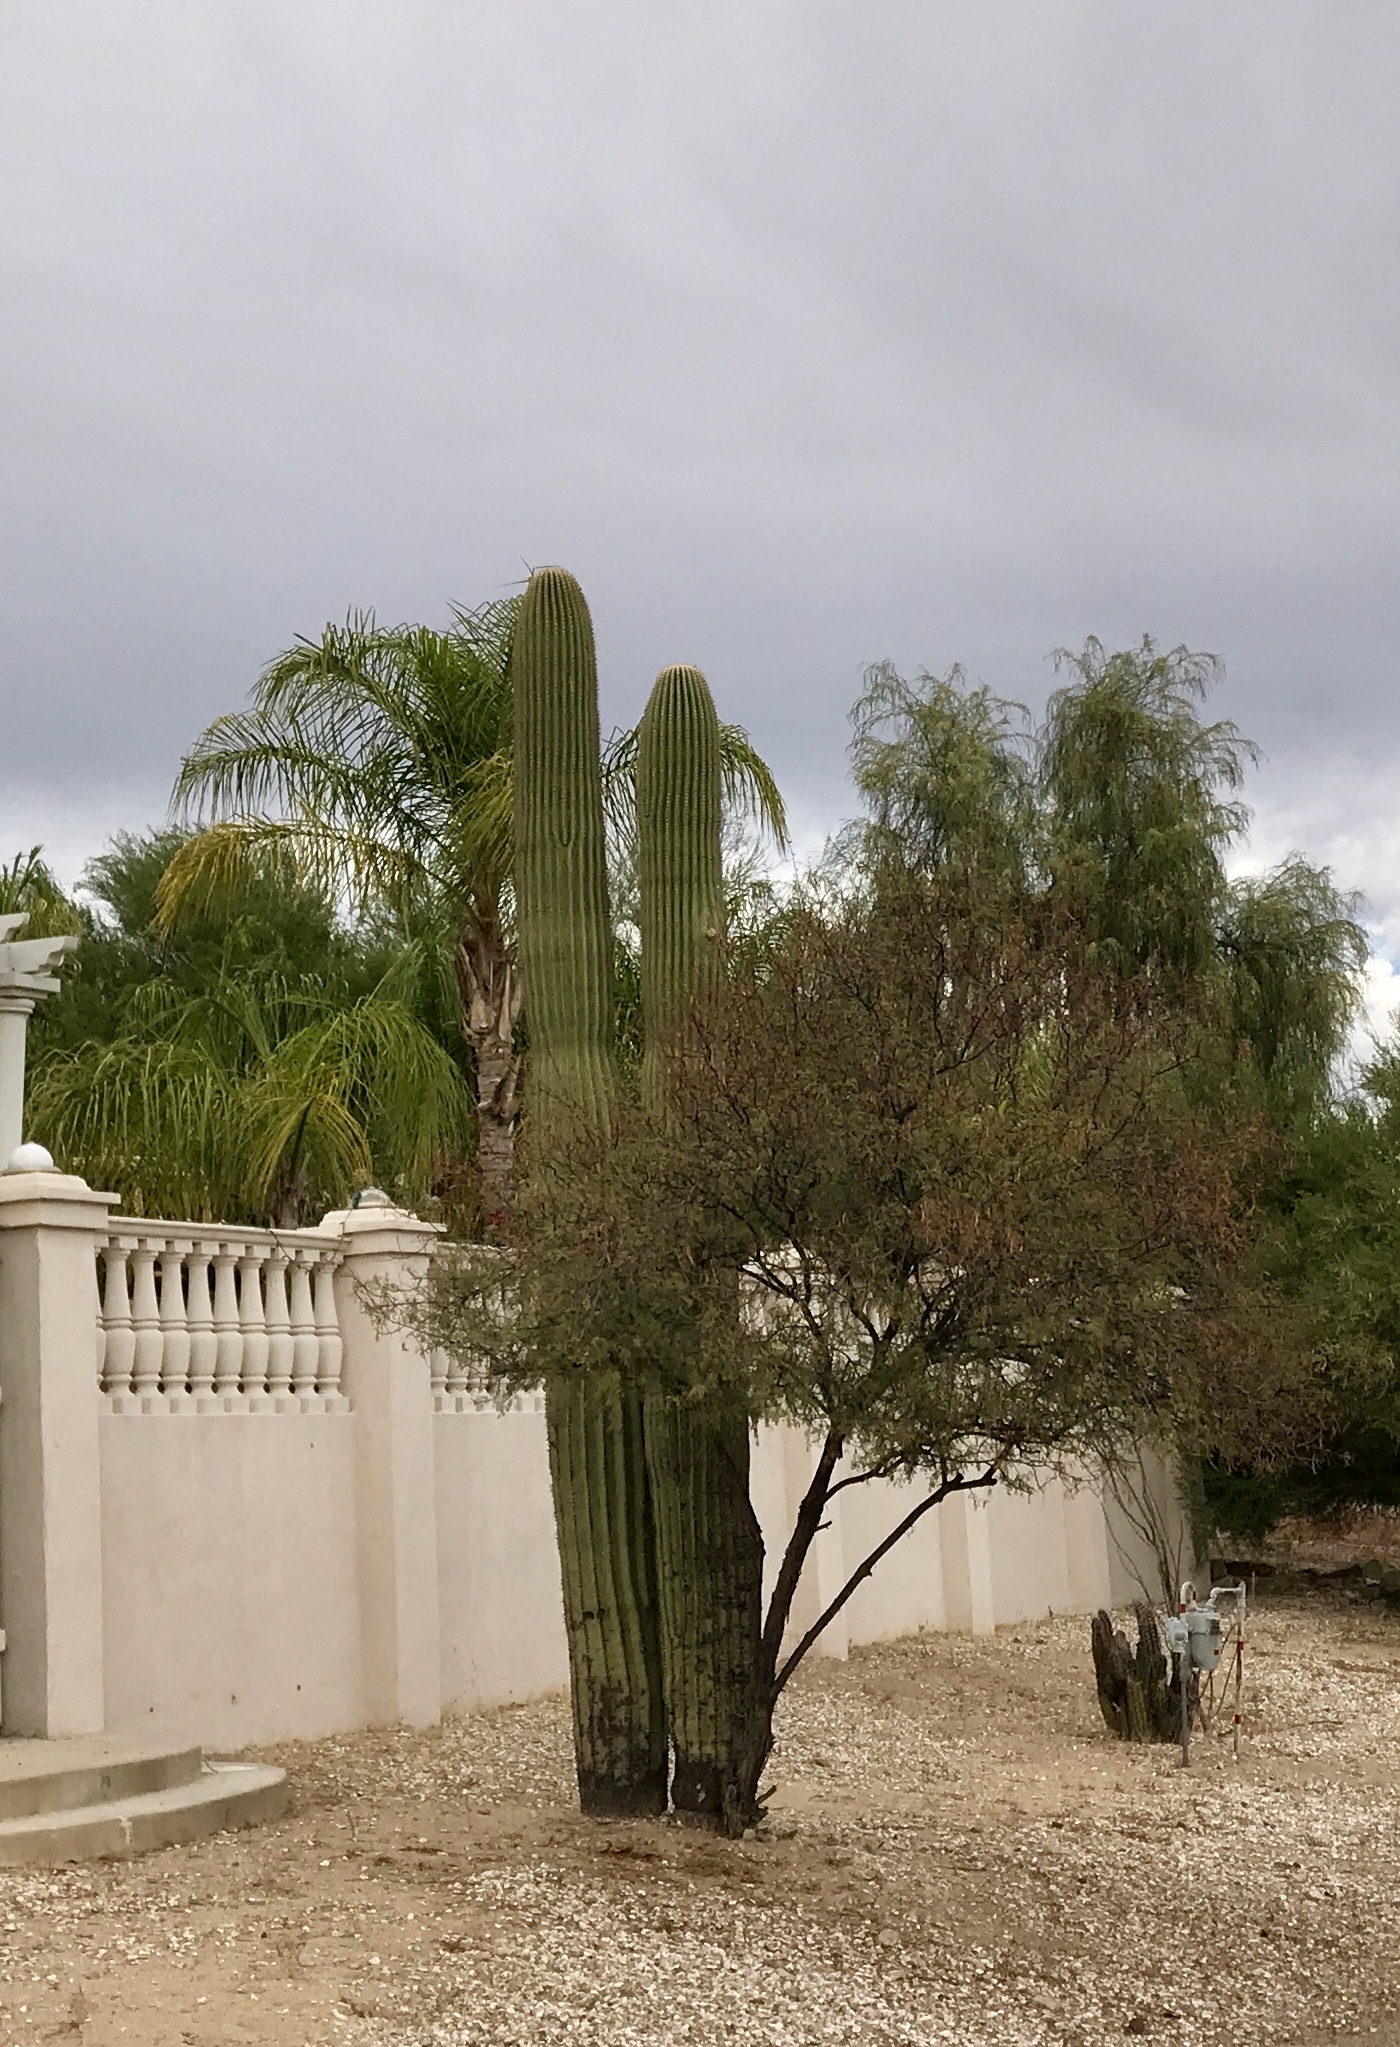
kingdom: Plantae
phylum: Tracheophyta
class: Magnoliopsida
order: Caryophyllales
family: Cactaceae
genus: Carnegiea
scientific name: Carnegiea gigantea
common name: Saguaro
